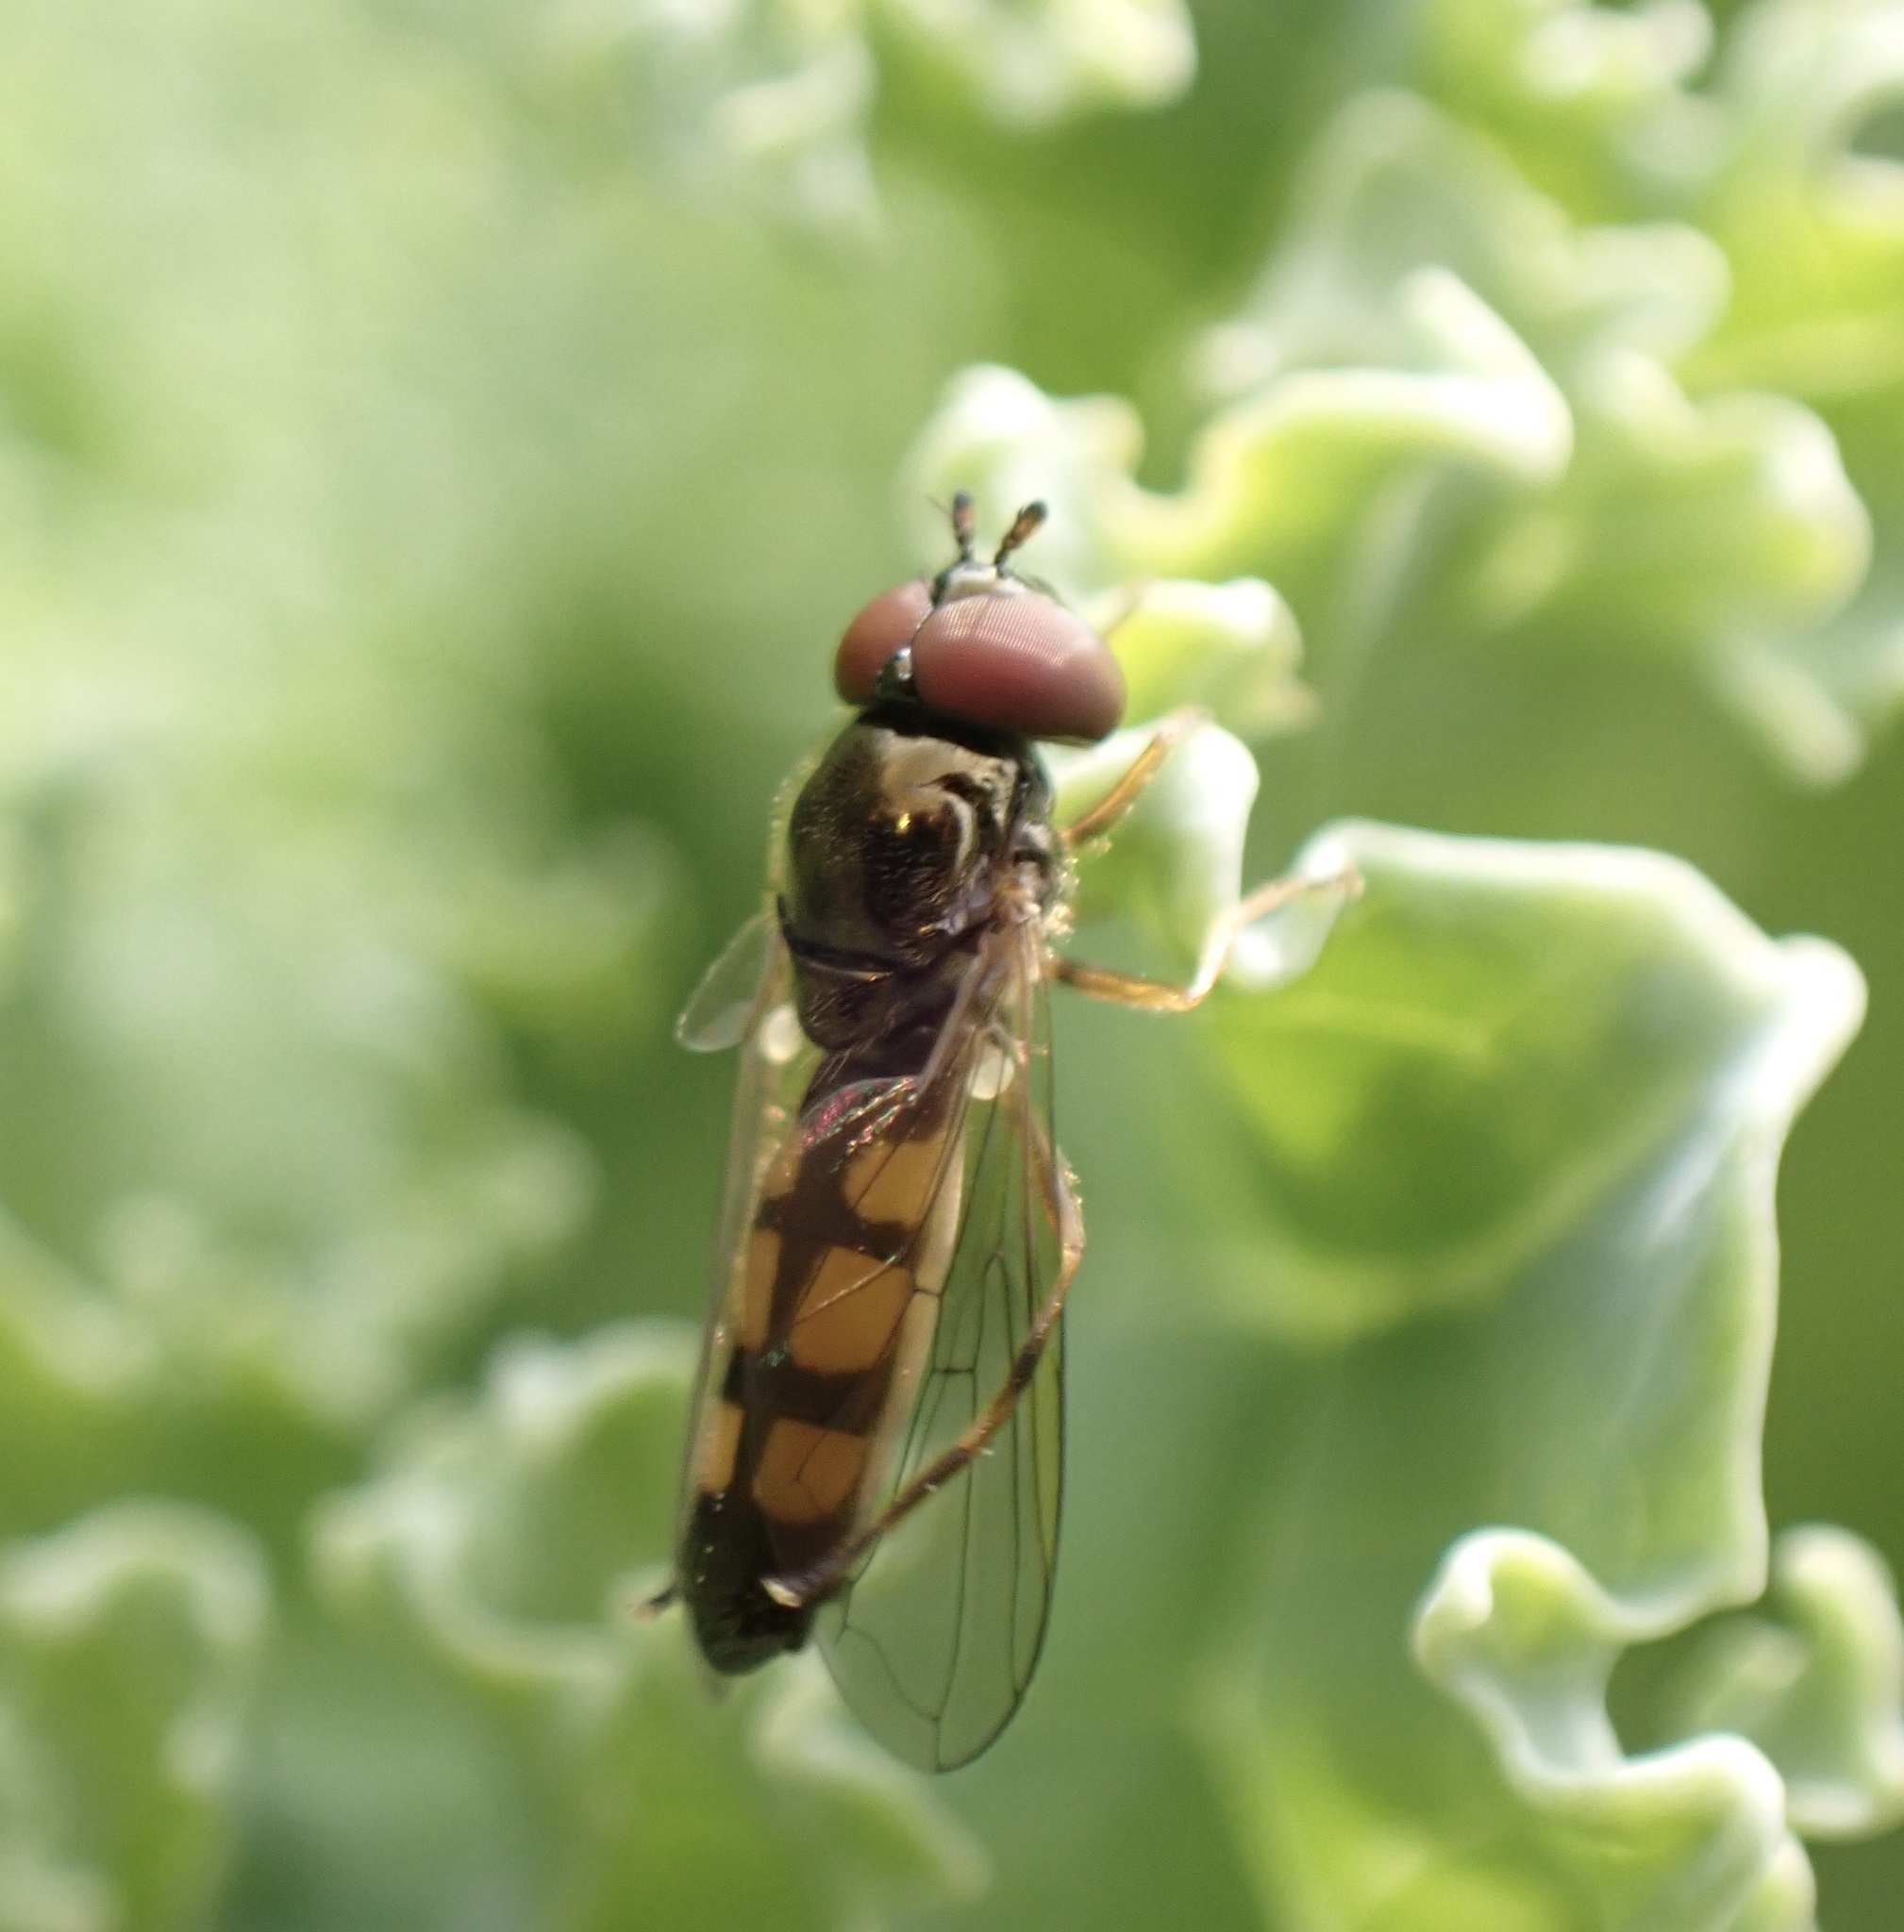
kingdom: Animalia
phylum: Arthropoda
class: Insecta
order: Diptera
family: Syrphidae
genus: Melanostoma
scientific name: Melanostoma mellina
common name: Hover fly
